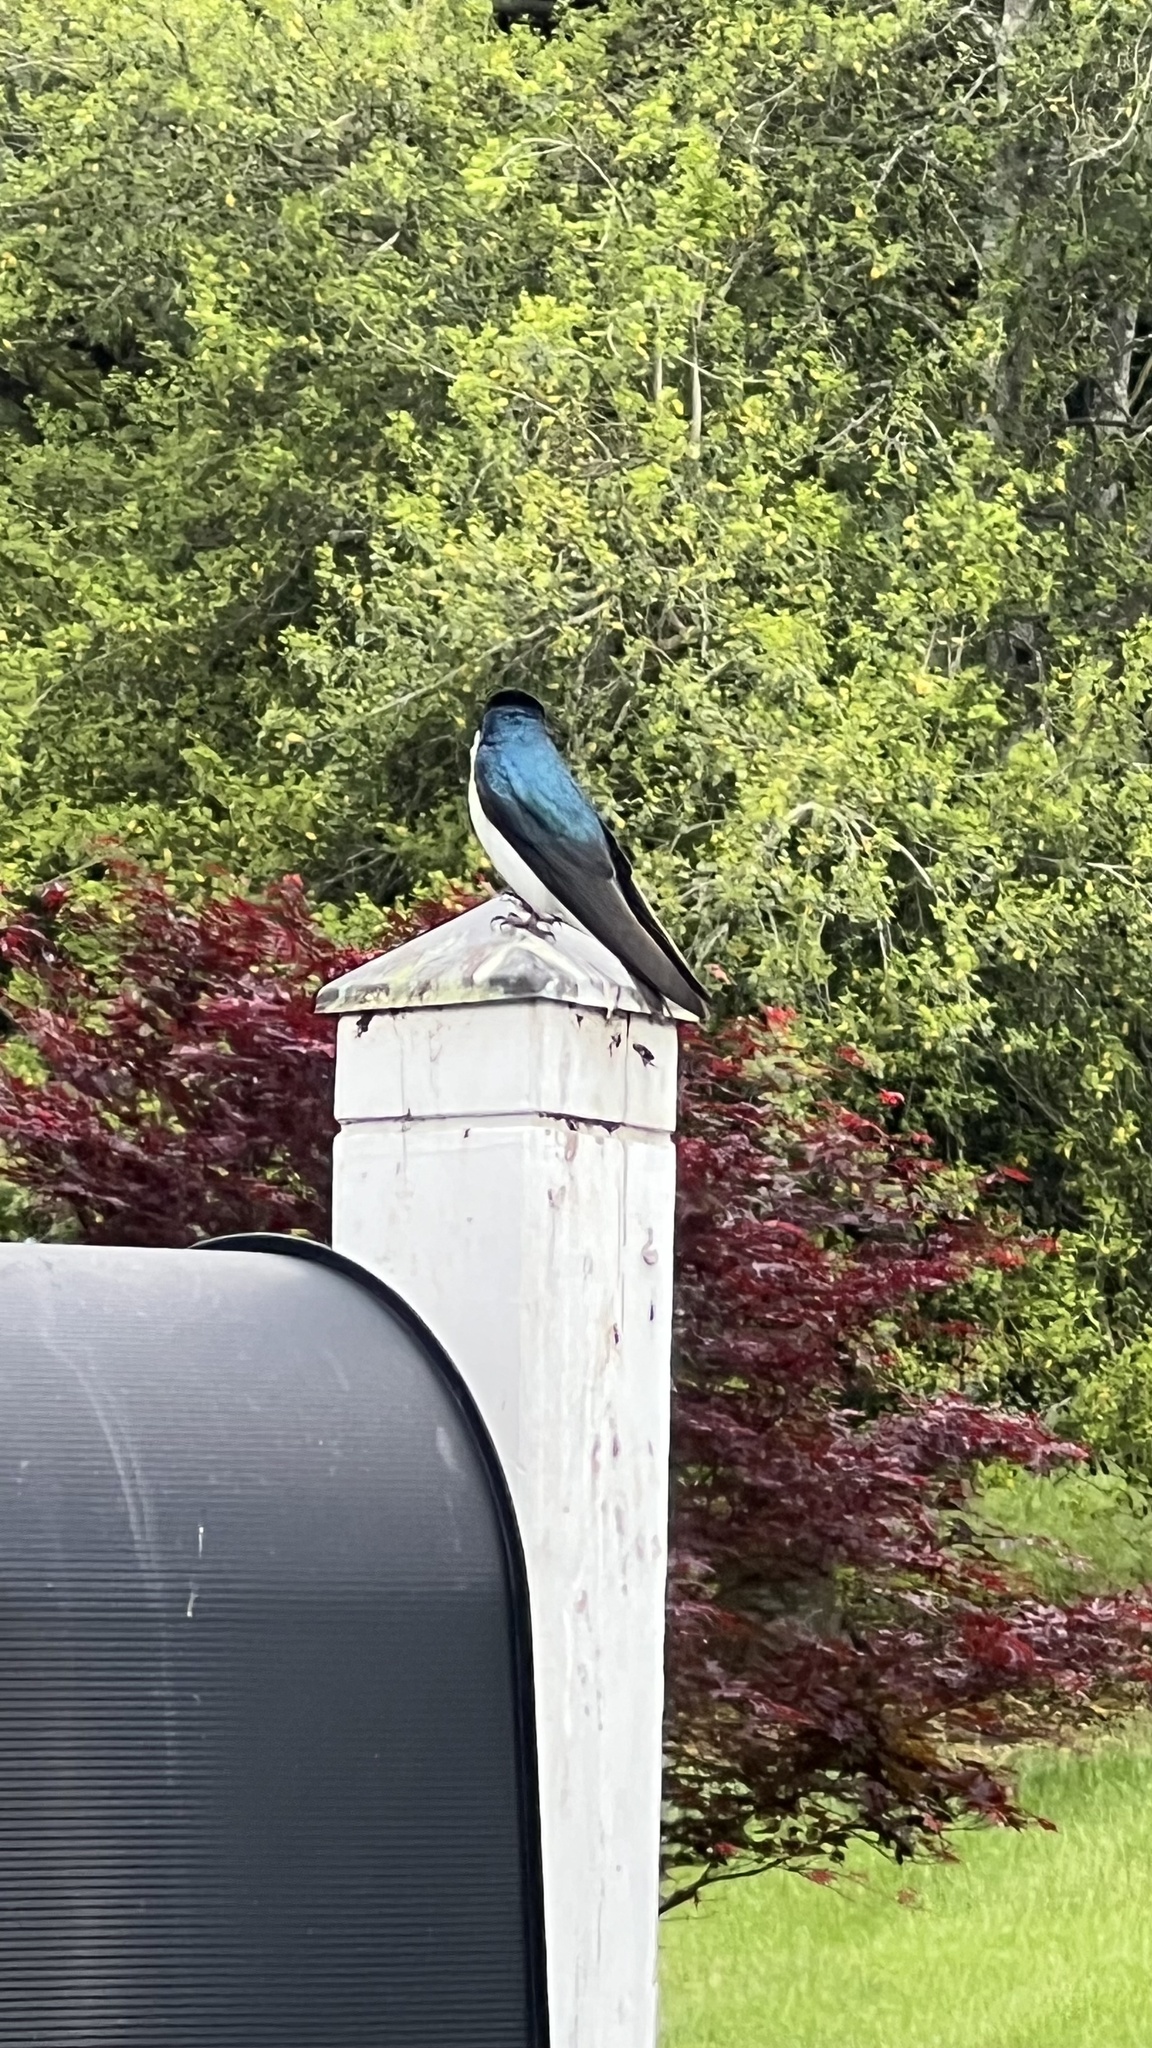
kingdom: Animalia
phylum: Chordata
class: Aves
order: Passeriformes
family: Hirundinidae
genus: Tachycineta
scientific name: Tachycineta bicolor
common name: Tree swallow
